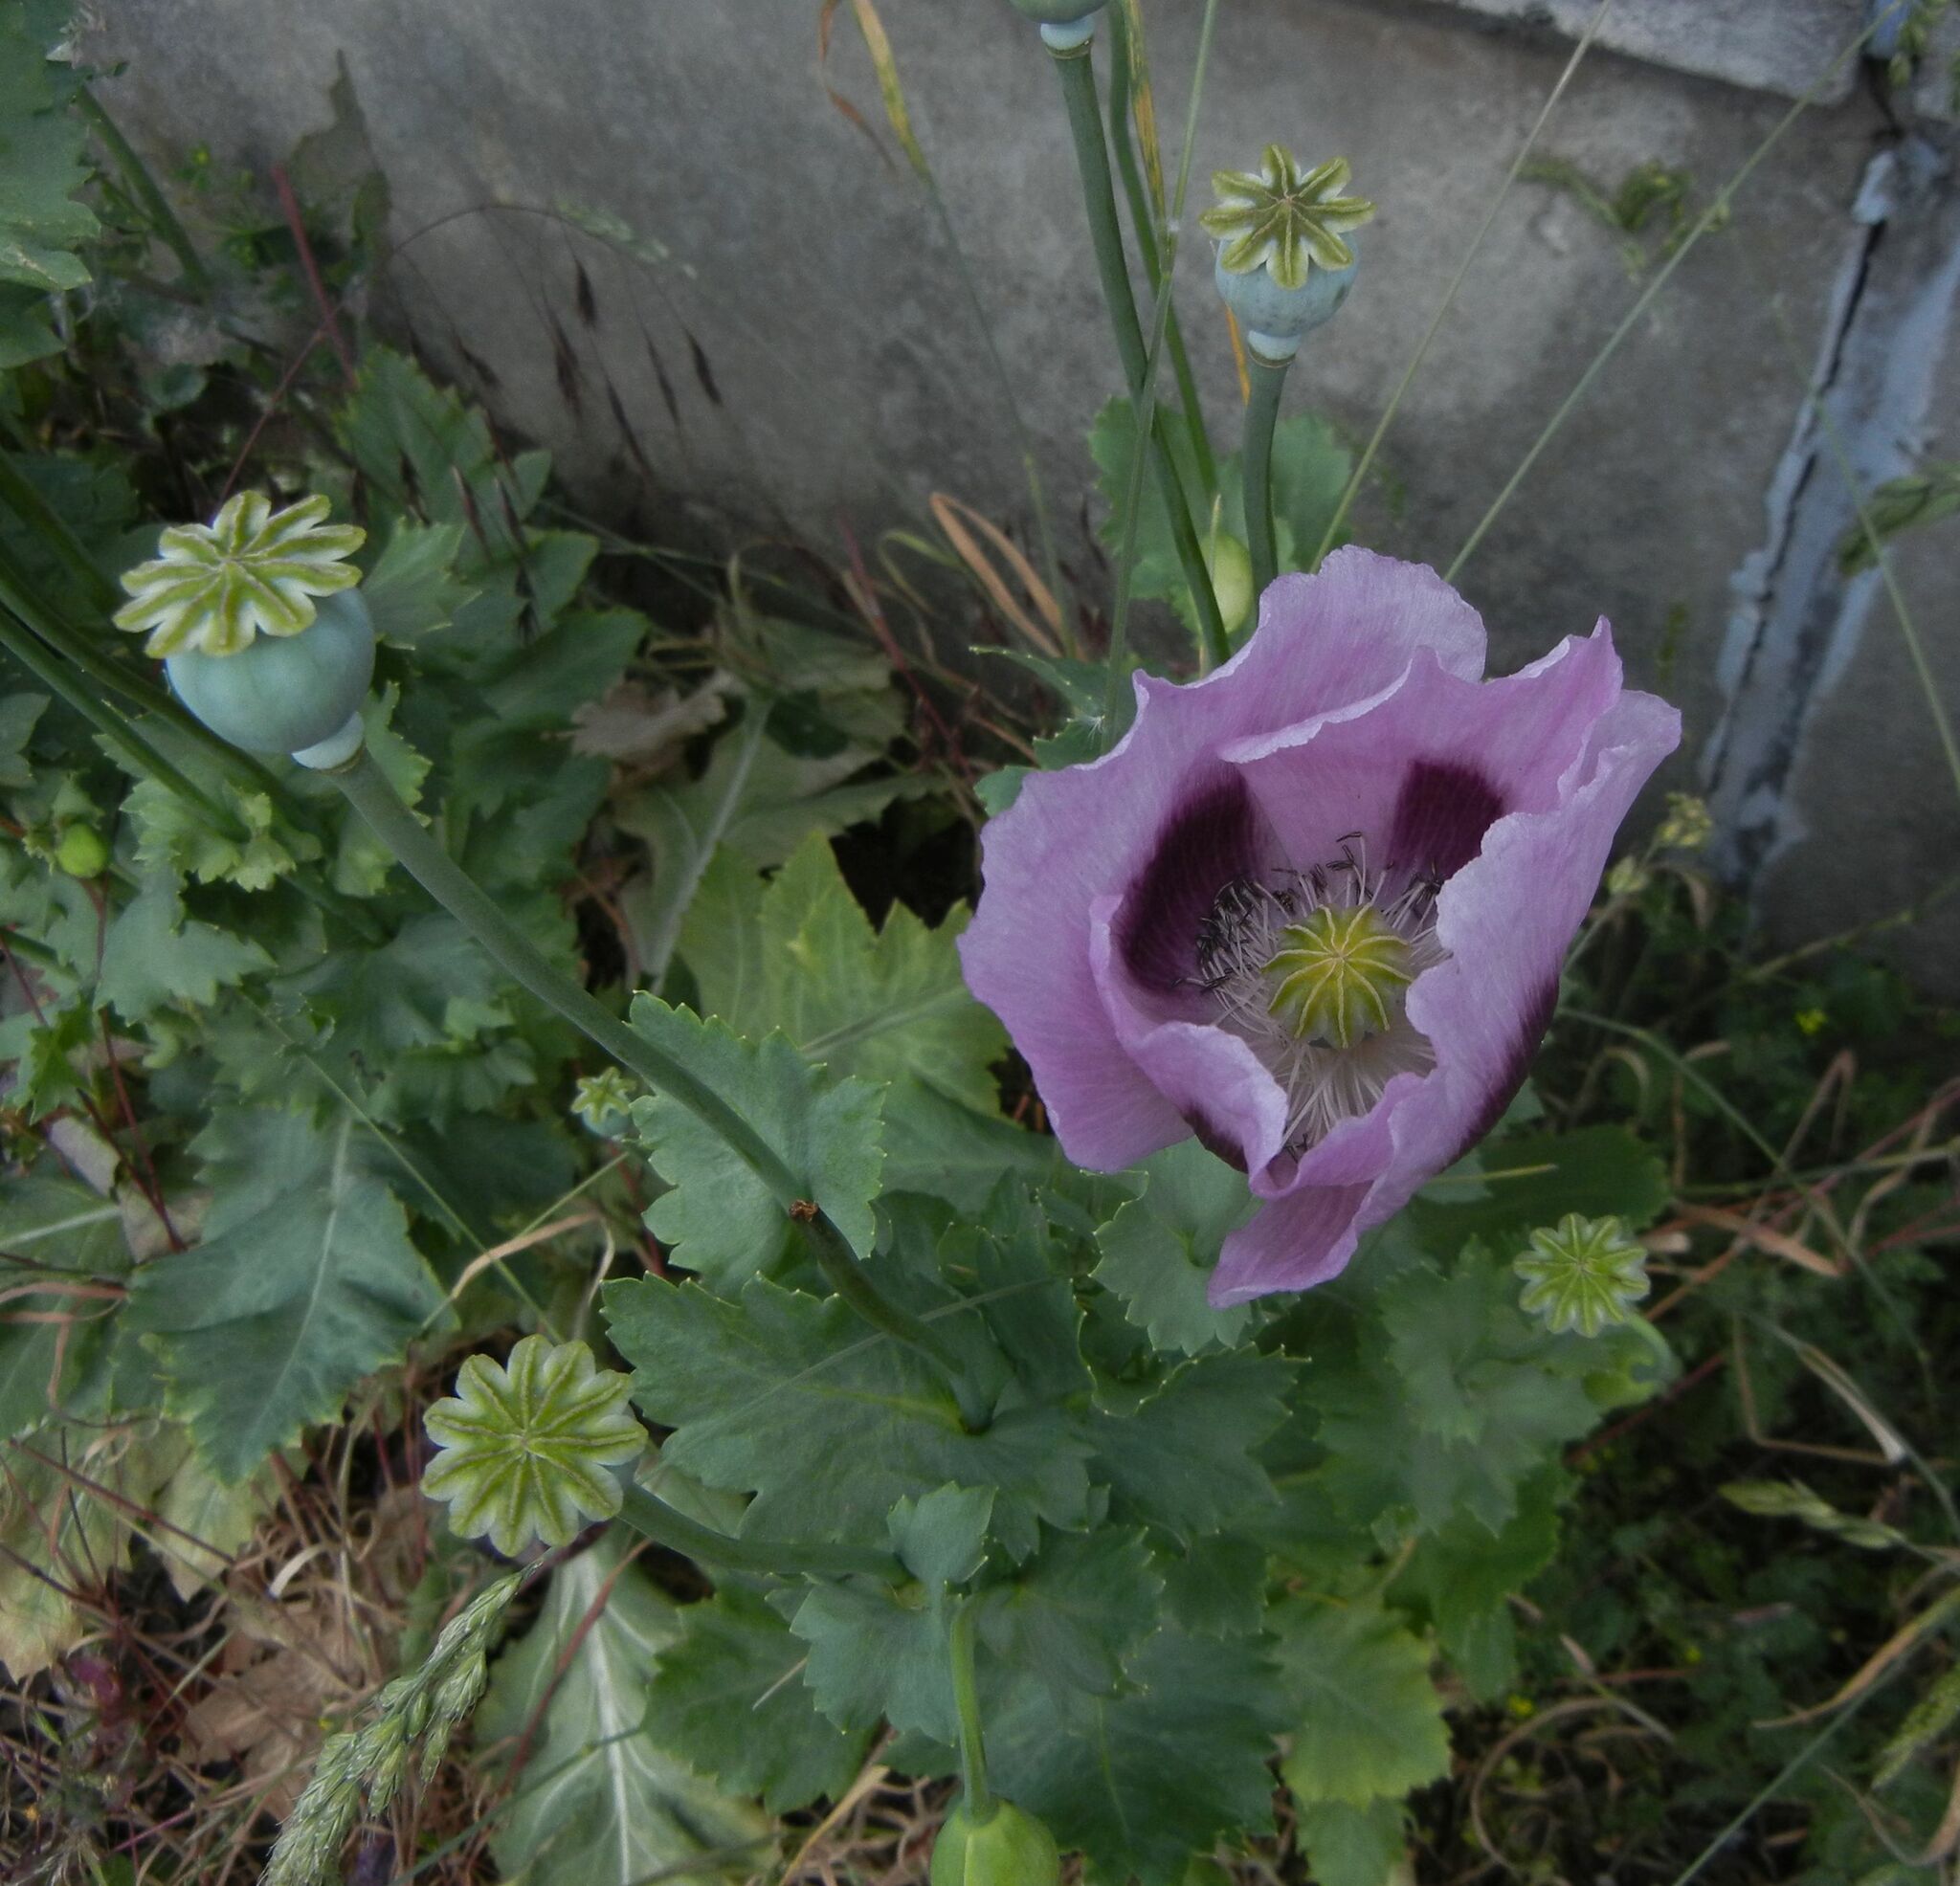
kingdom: Plantae
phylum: Tracheophyta
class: Magnoliopsida
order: Ranunculales
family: Papaveraceae
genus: Papaver
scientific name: Papaver somniferum
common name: Opium poppy
